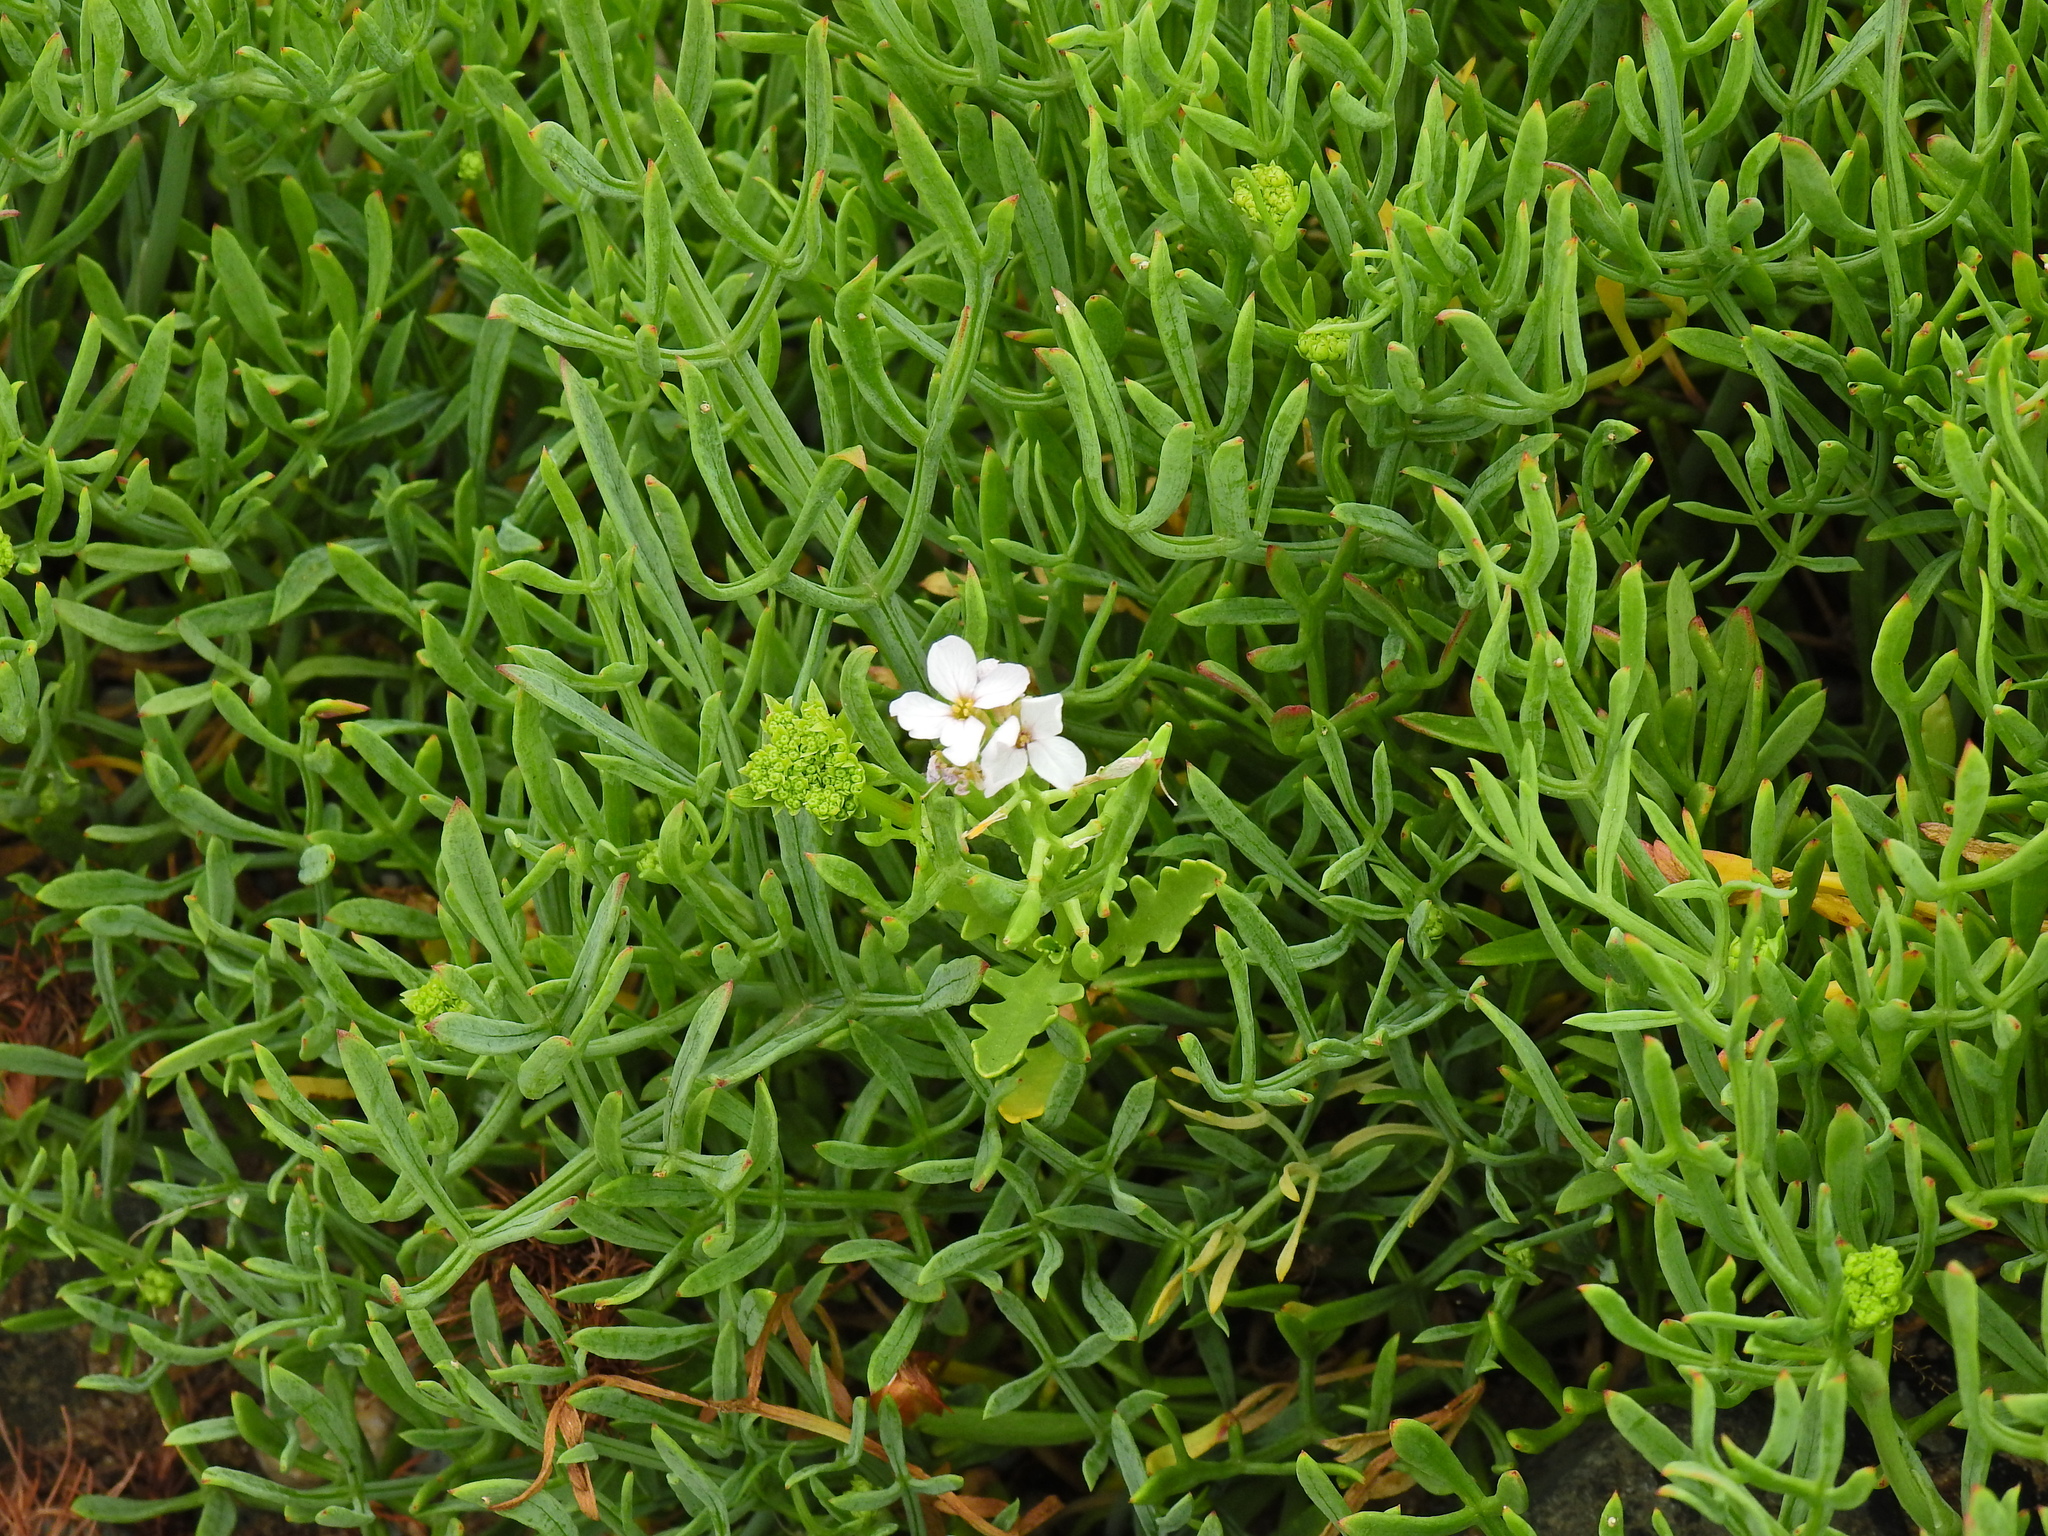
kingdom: Plantae
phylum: Tracheophyta
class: Magnoliopsida
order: Brassicales
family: Brassicaceae
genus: Cakile
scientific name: Cakile maritima
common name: Sea rocket
